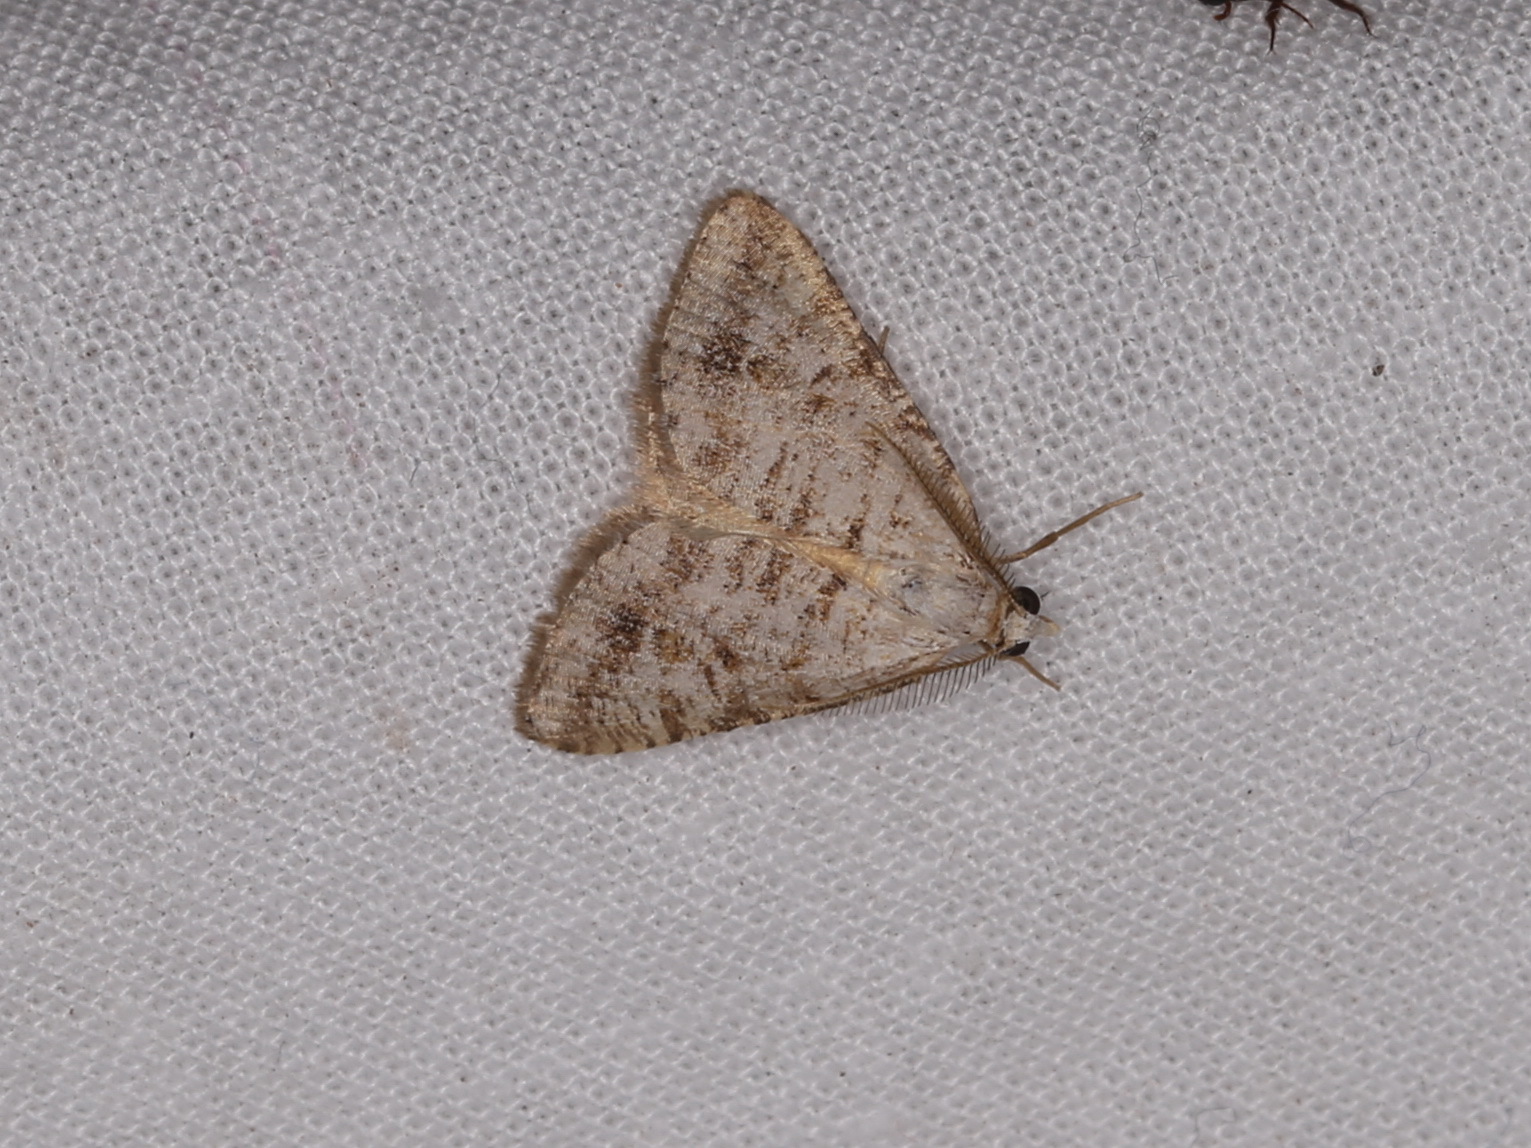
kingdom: Animalia
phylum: Arthropoda
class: Insecta
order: Lepidoptera
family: Geometridae
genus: Paramelora
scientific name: Paramelora zophodesma
